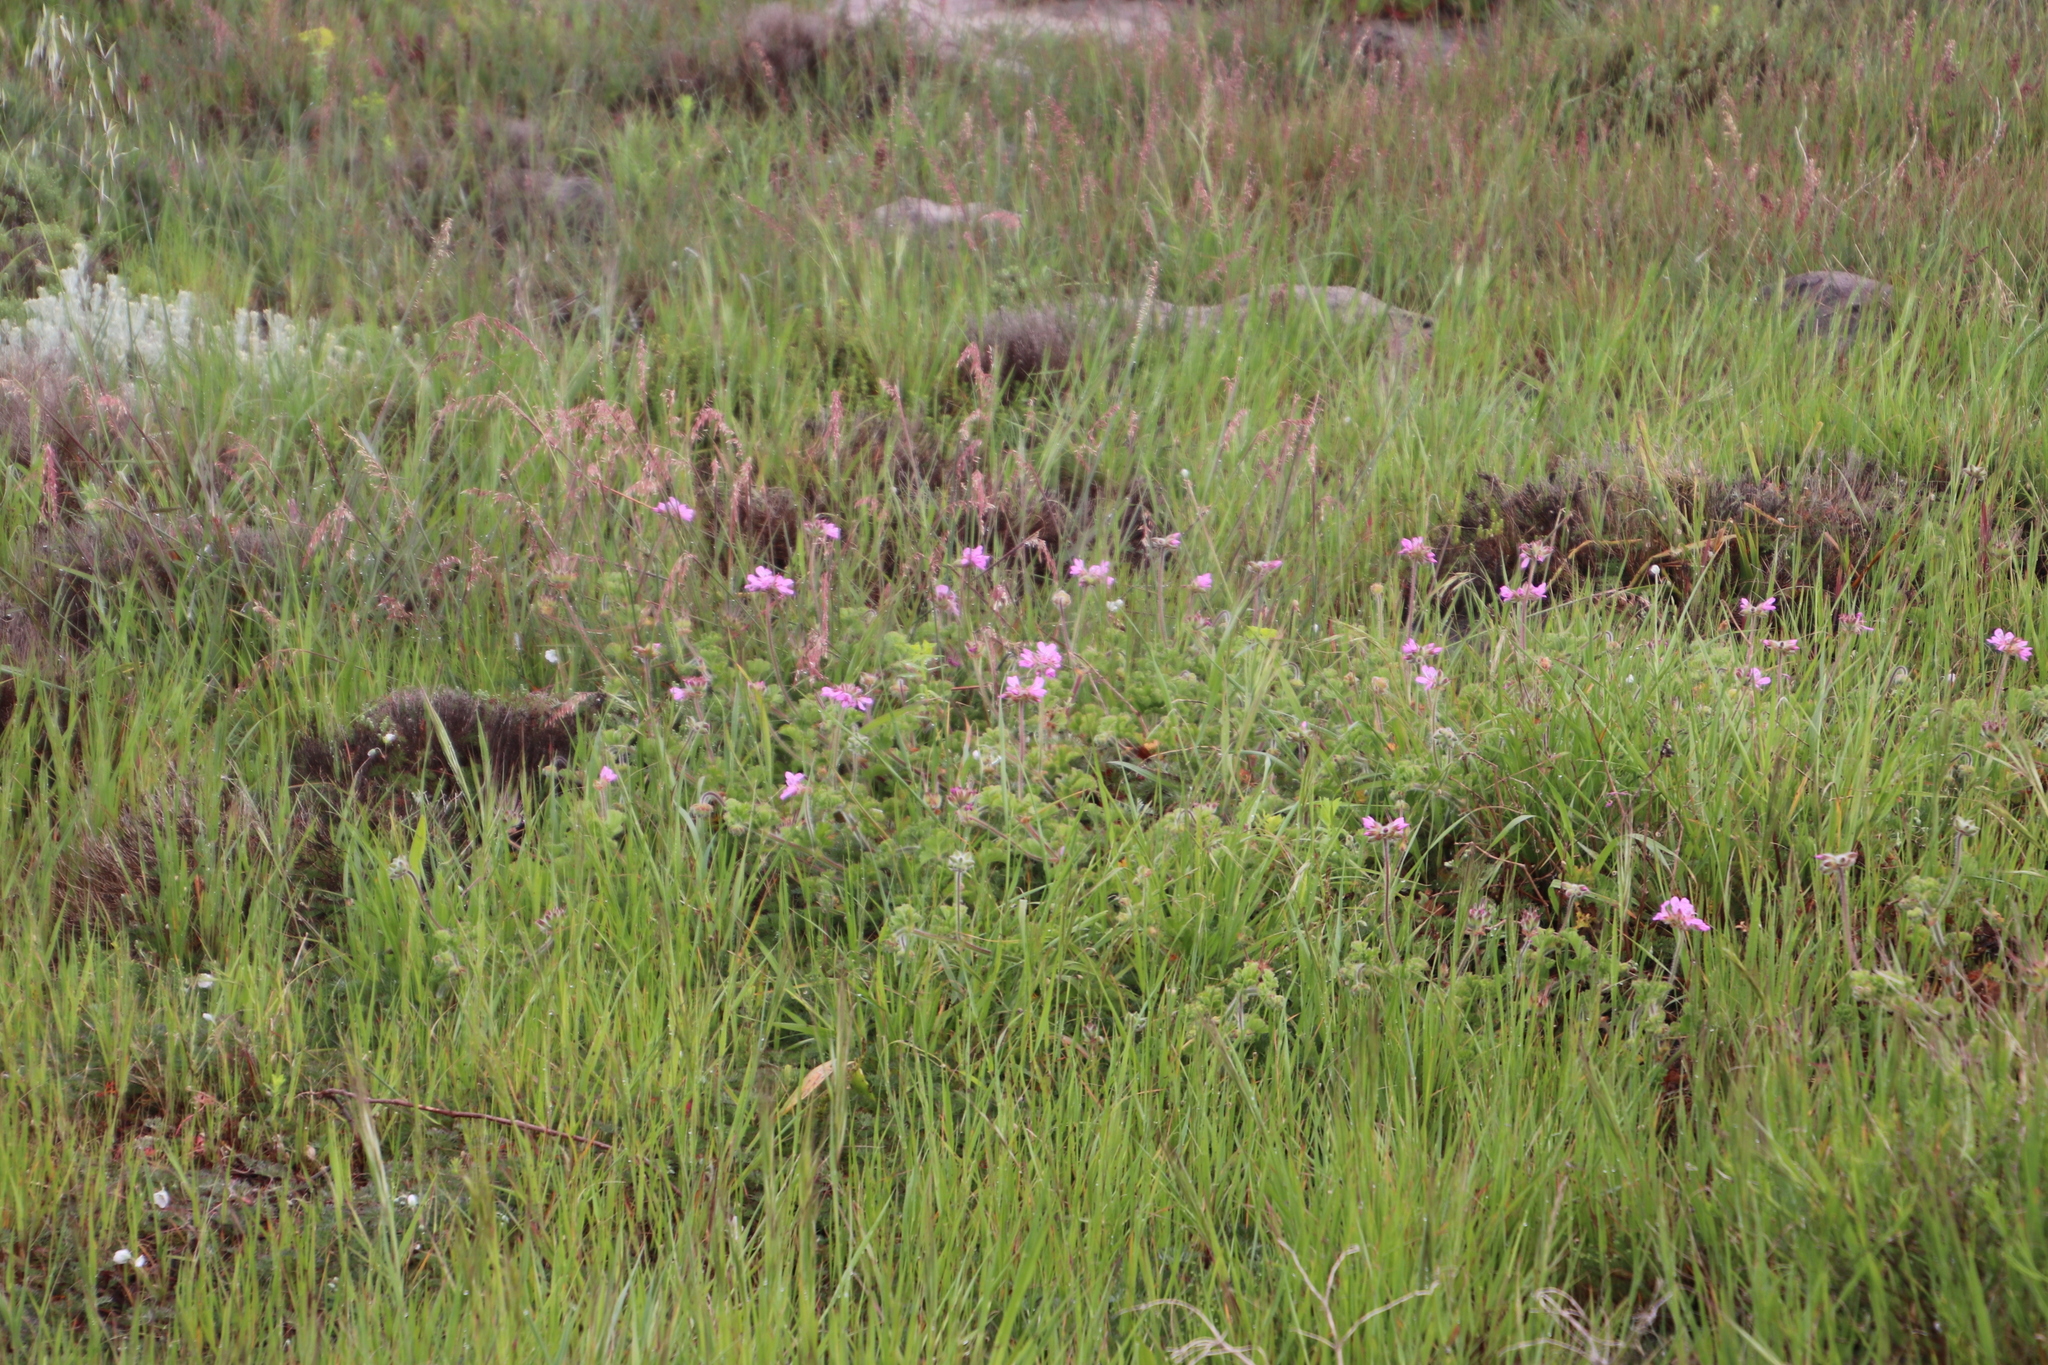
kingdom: Plantae
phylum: Tracheophyta
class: Magnoliopsida
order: Geraniales
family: Geraniaceae
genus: Pelargonium
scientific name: Pelargonium capitatum
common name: Rose scented geranium
